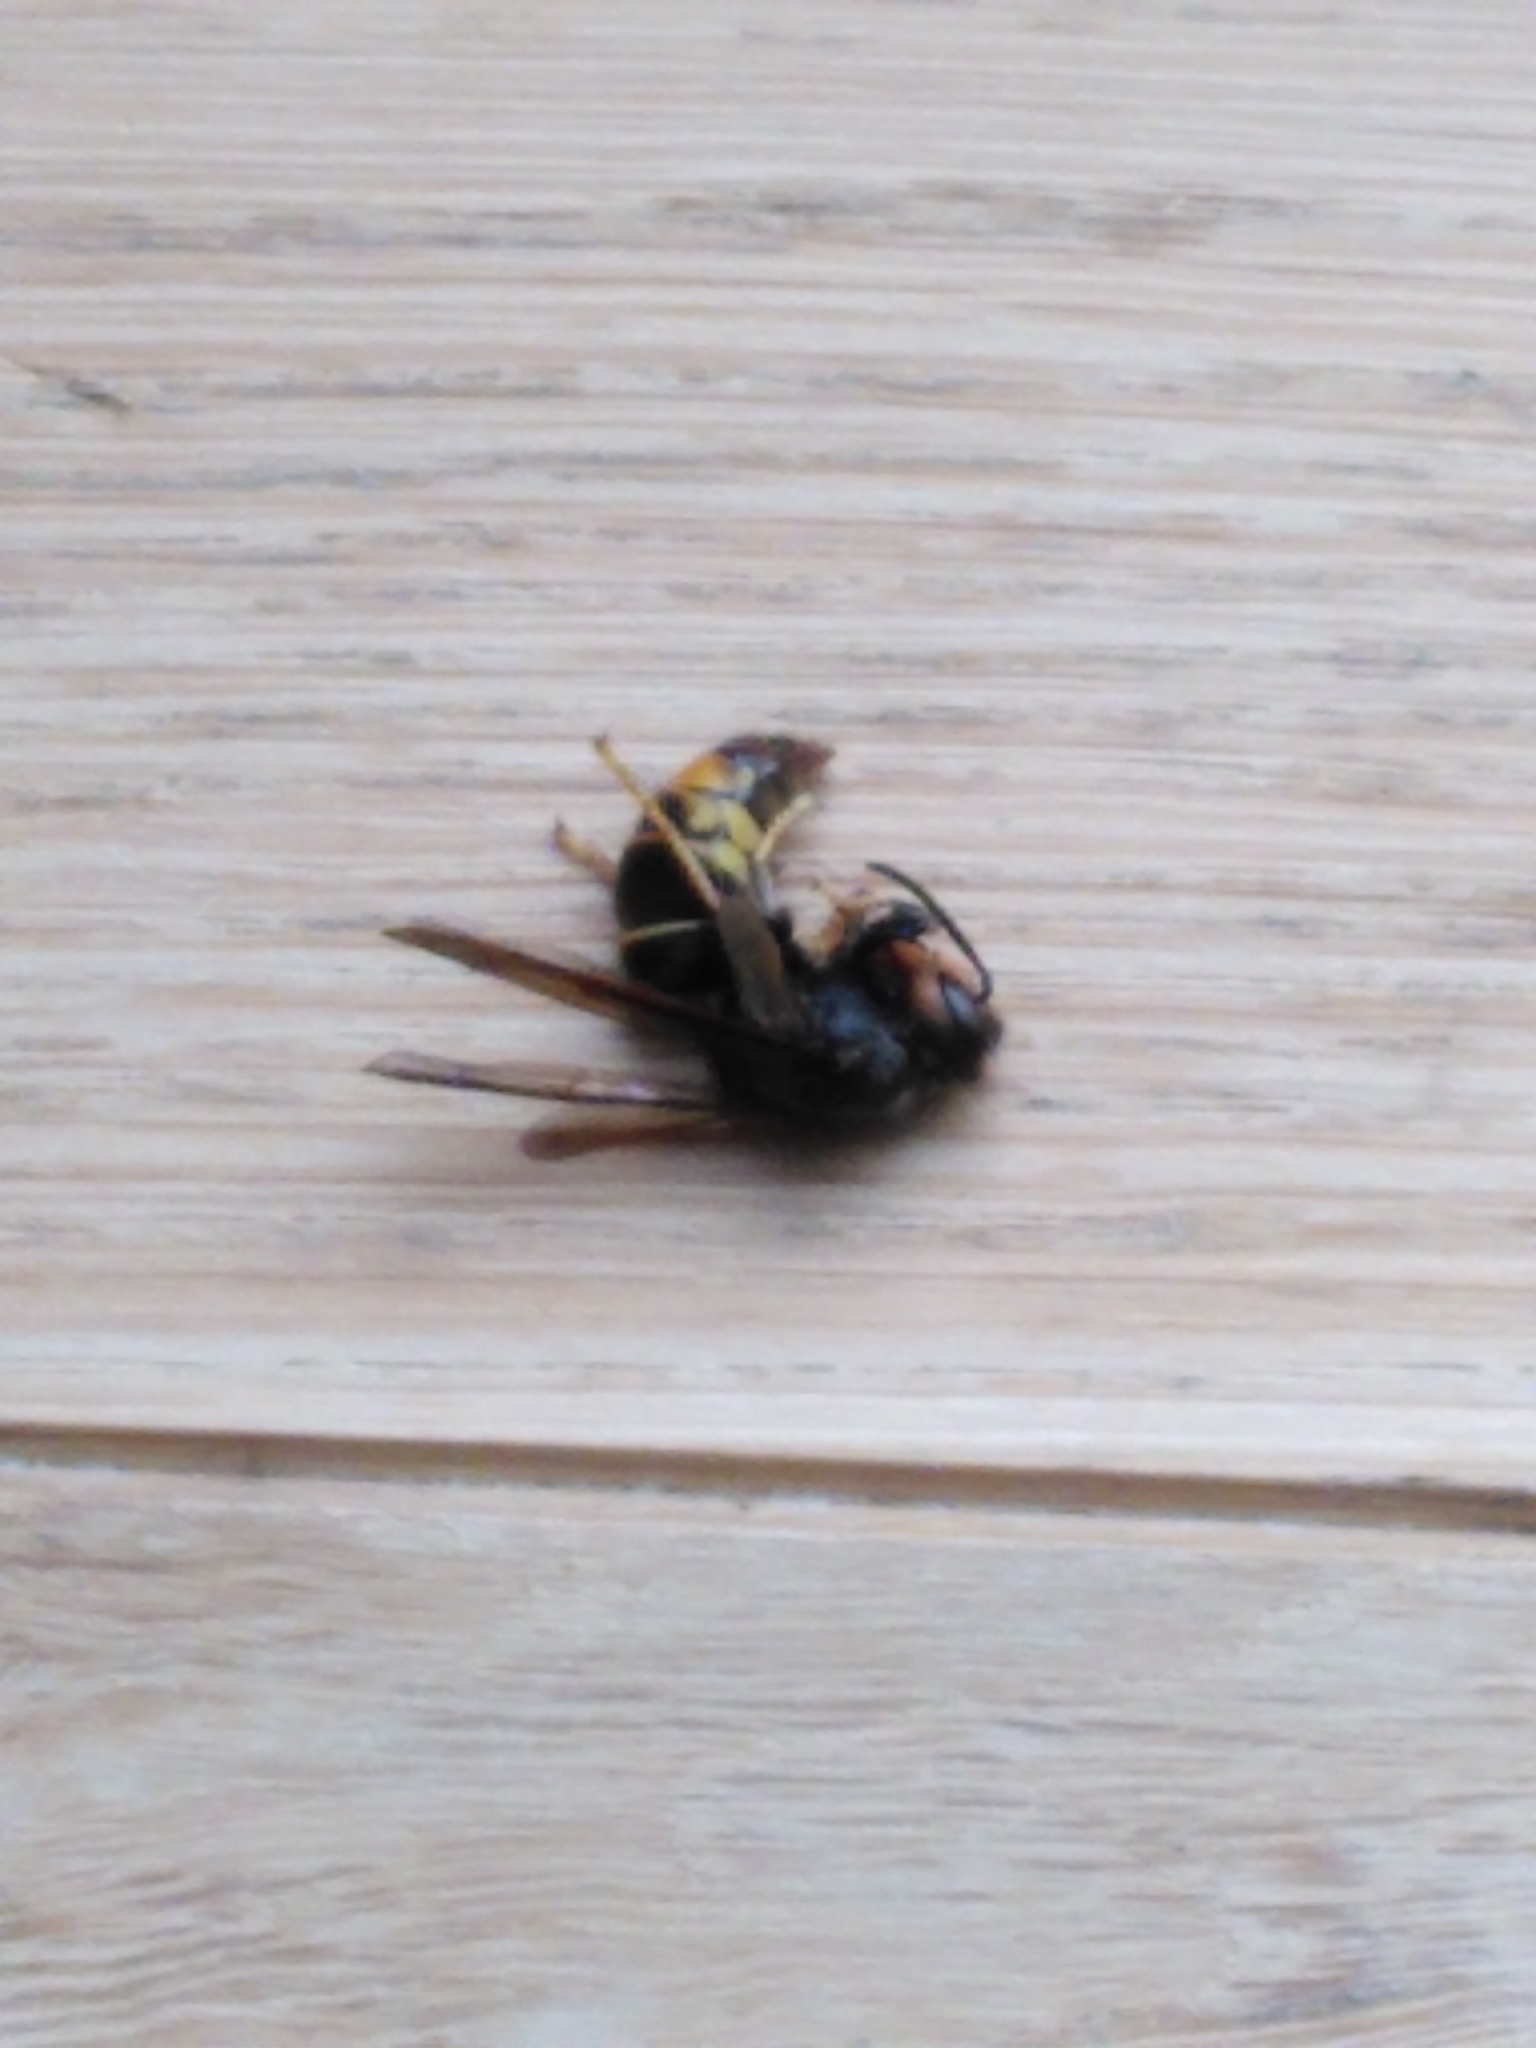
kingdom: Animalia
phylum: Arthropoda
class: Insecta
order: Hymenoptera
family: Vespidae
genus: Vespa
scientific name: Vespa velutina
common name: Asian hornet
